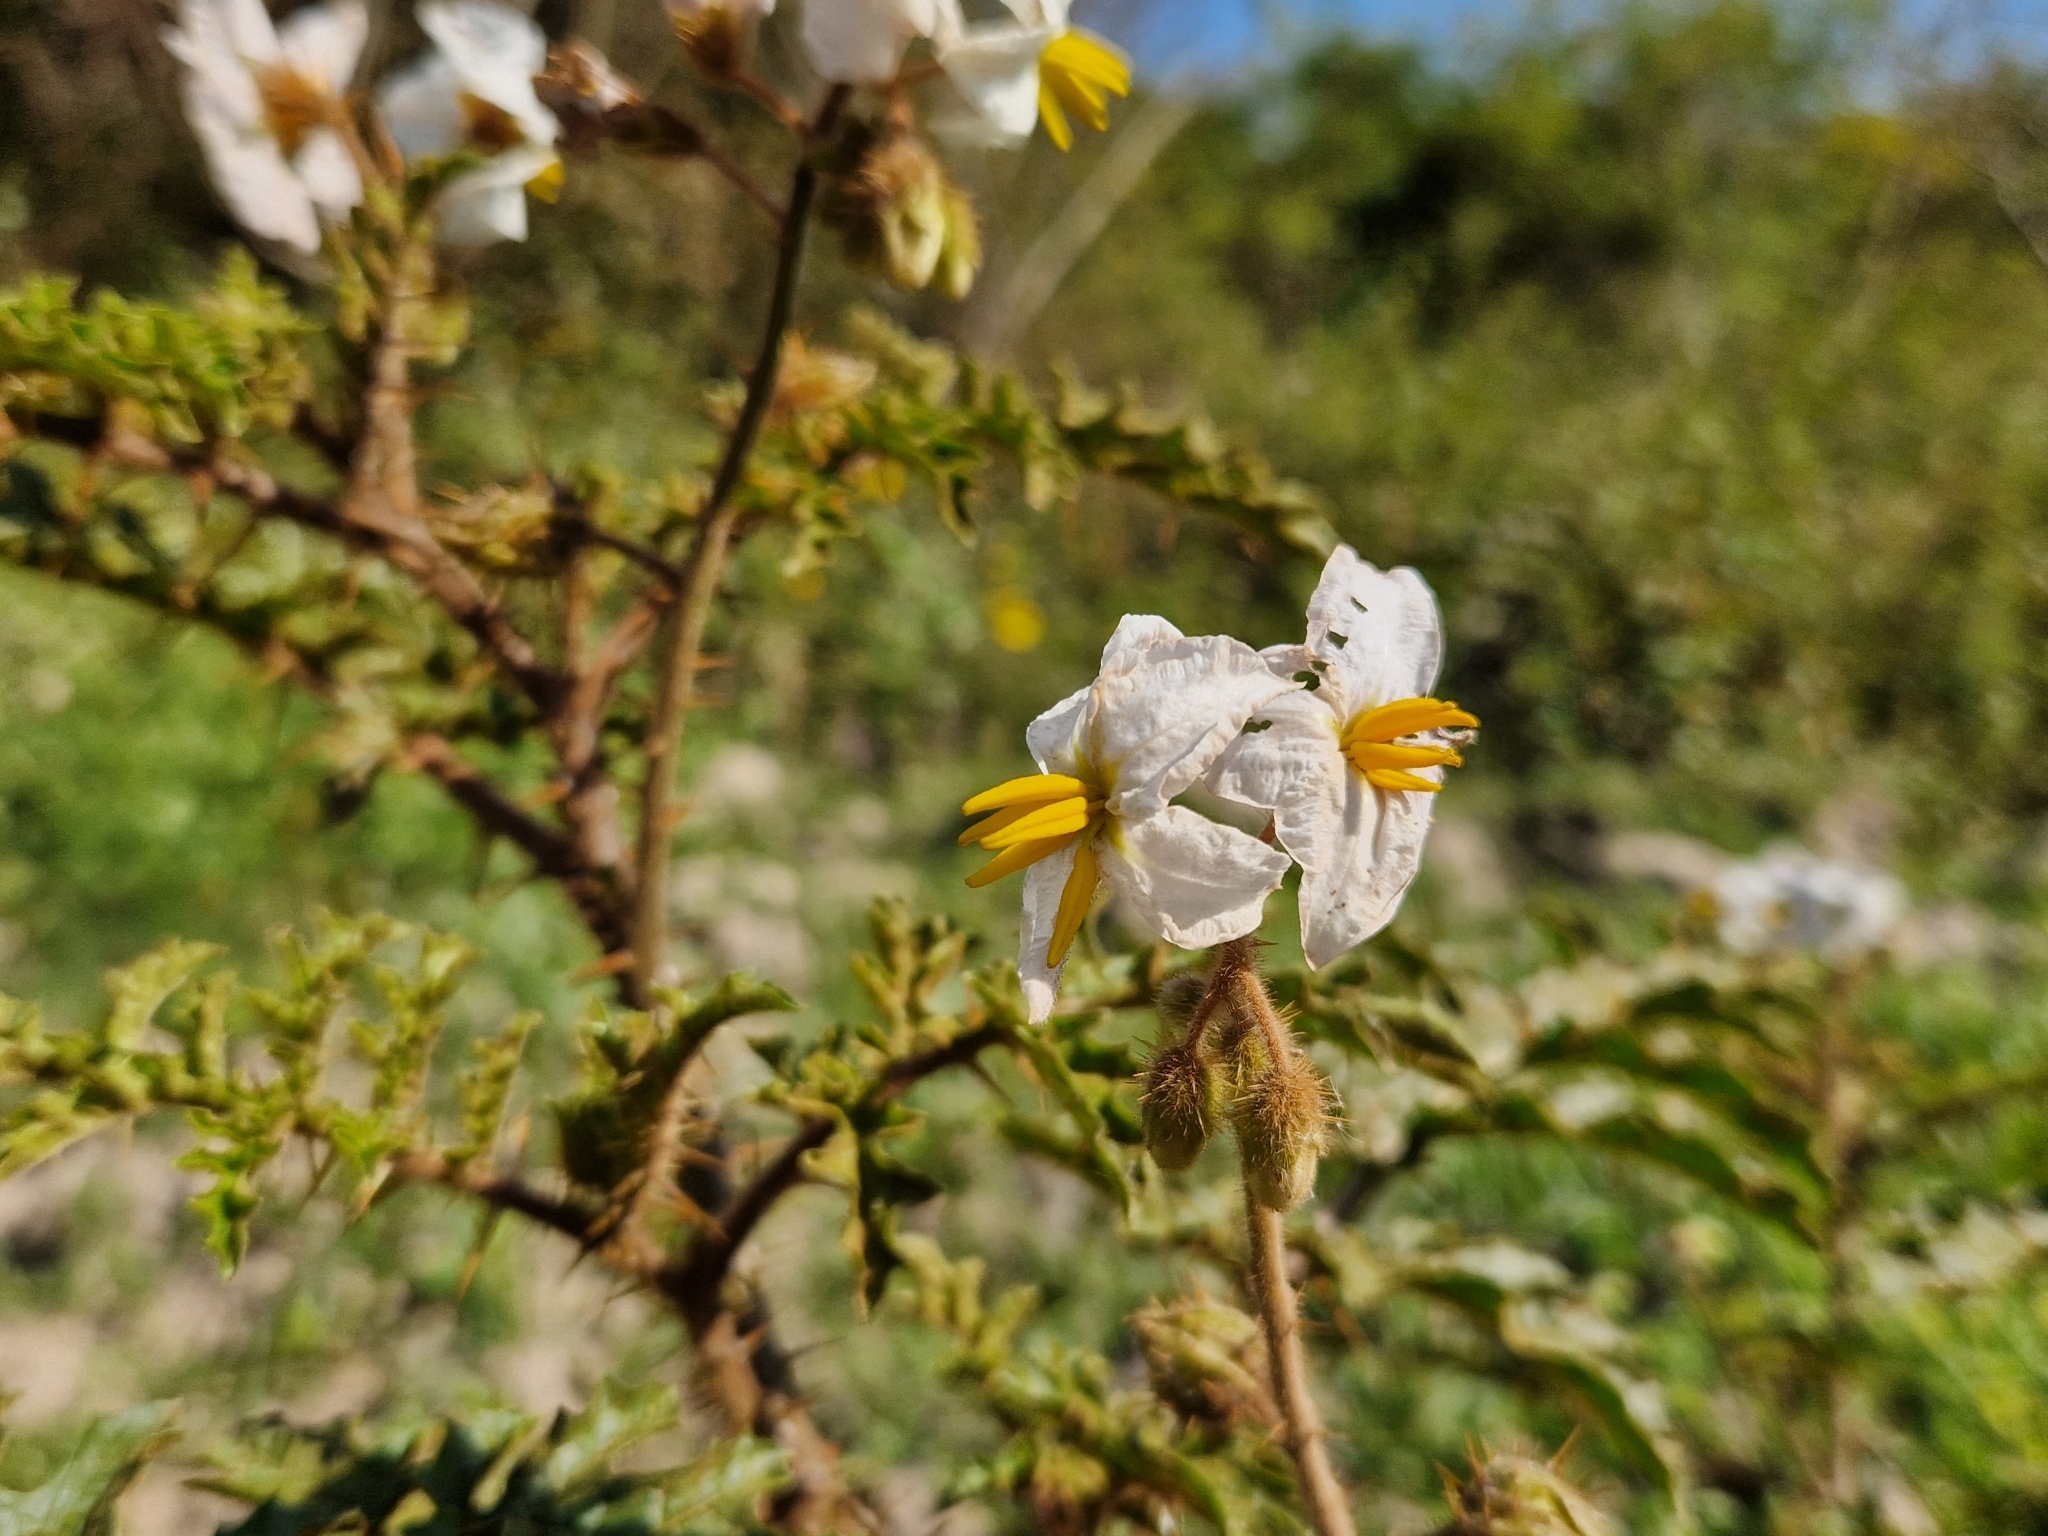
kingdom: Plantae
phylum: Tracheophyta
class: Magnoliopsida
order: Solanales
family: Solanaceae
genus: Solanum
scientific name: Solanum sisymbriifolium
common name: Red buffalo-bur
